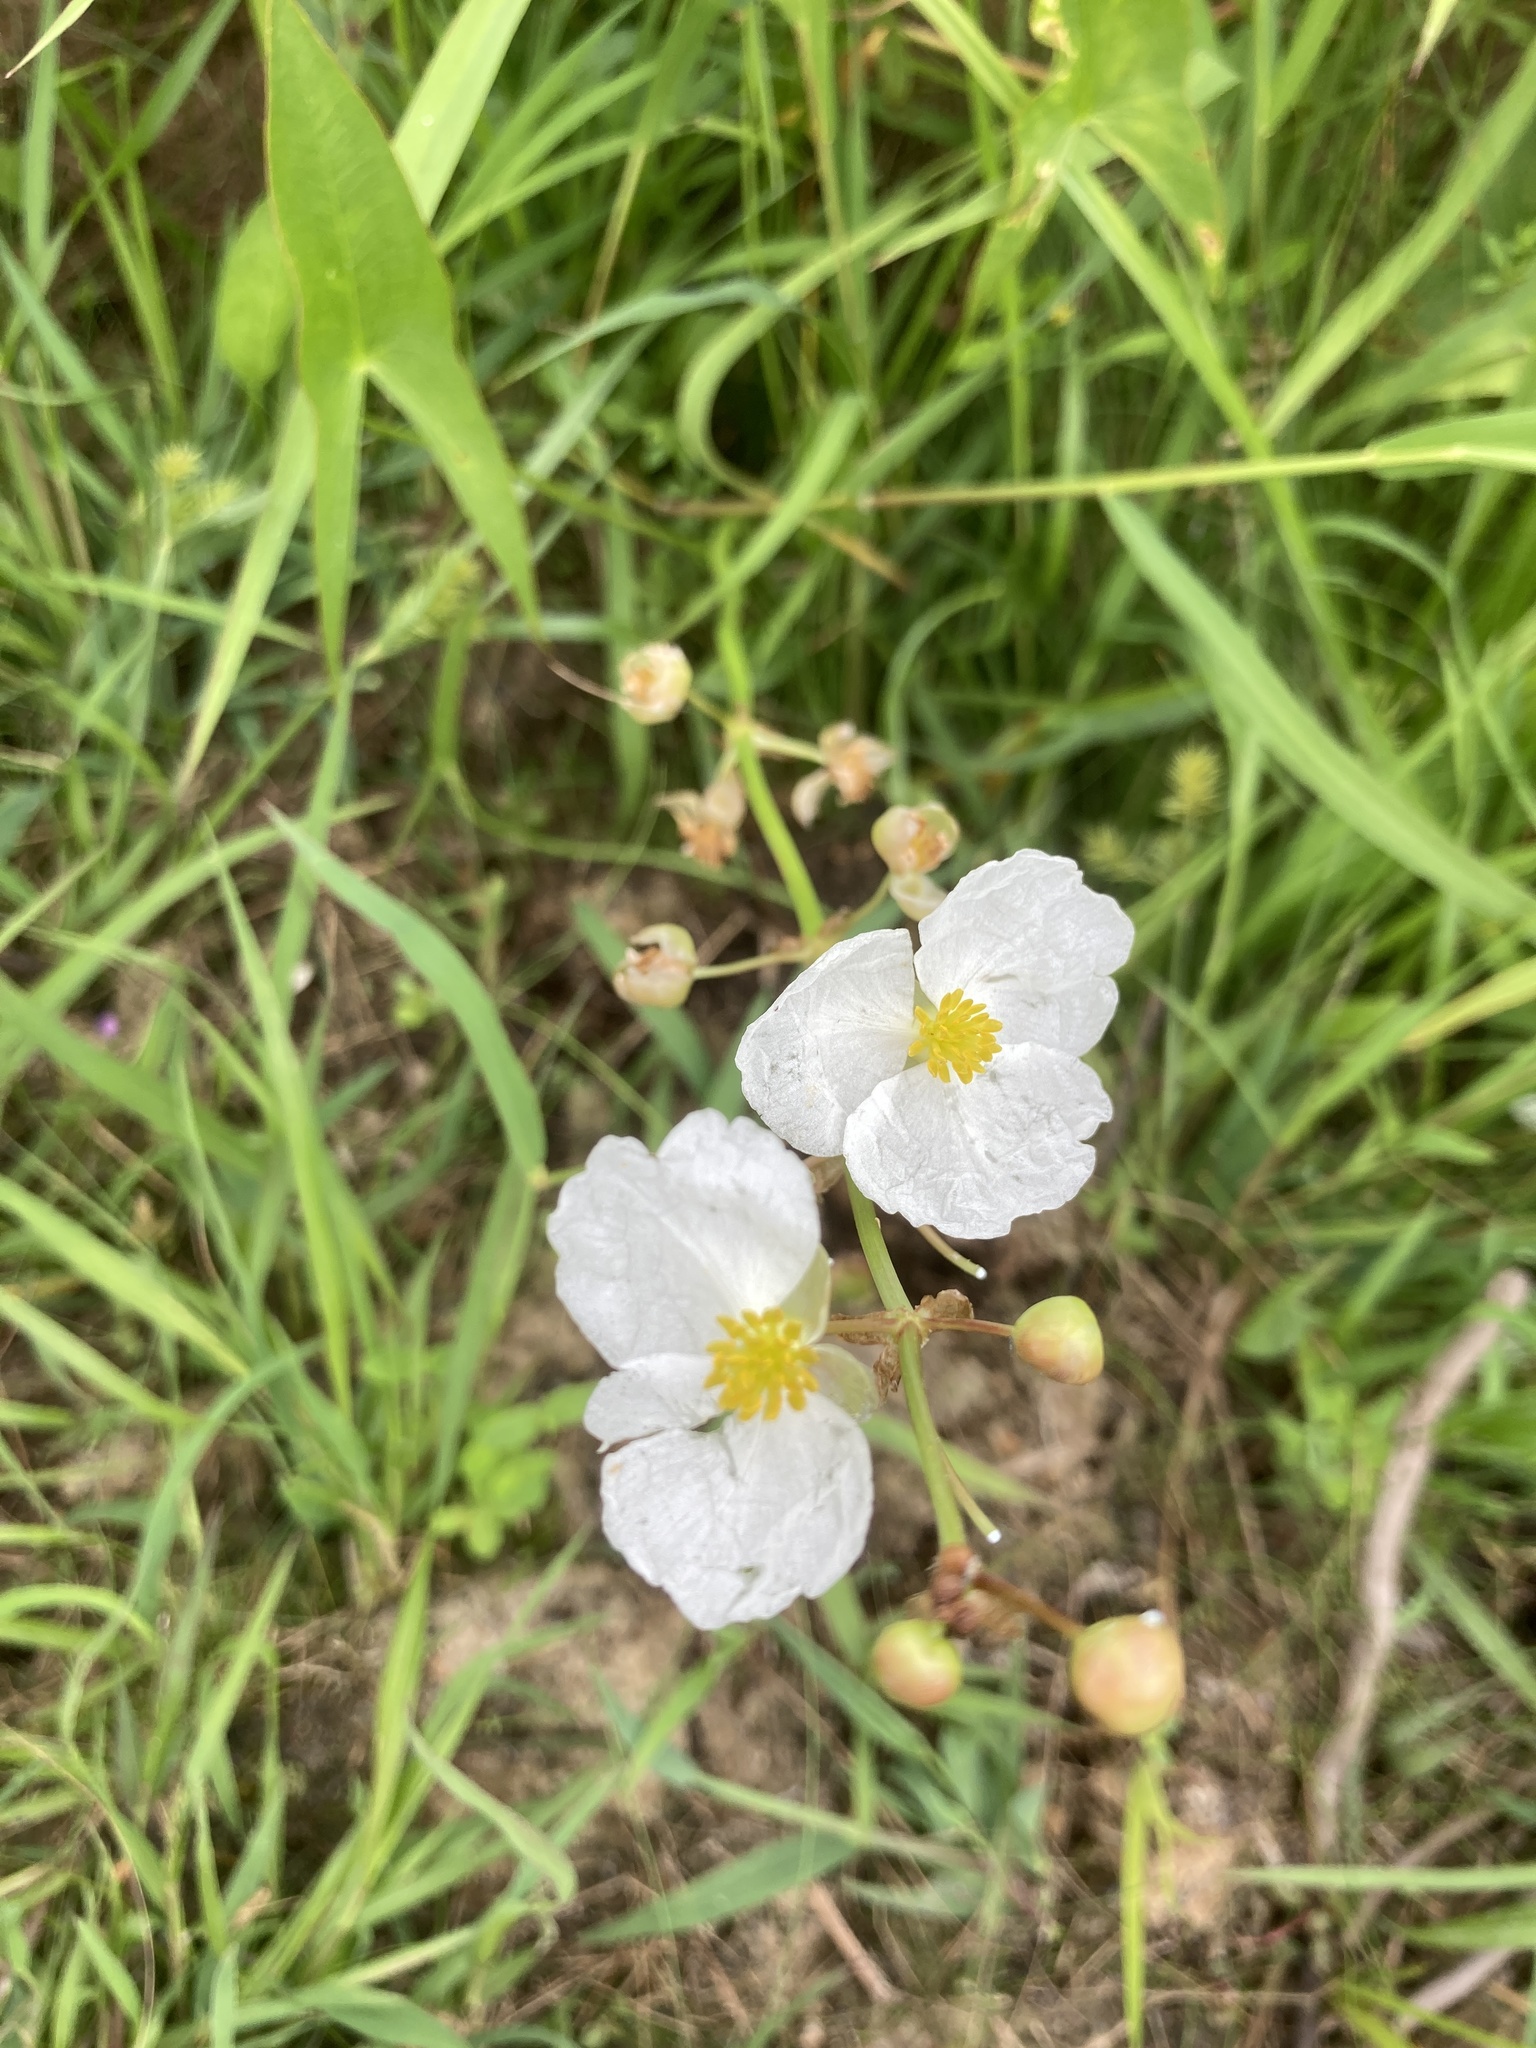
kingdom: Plantae
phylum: Tracheophyta
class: Liliopsida
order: Alismatales
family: Alismataceae
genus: Sagittaria
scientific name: Sagittaria latifolia
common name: Duck-potato
